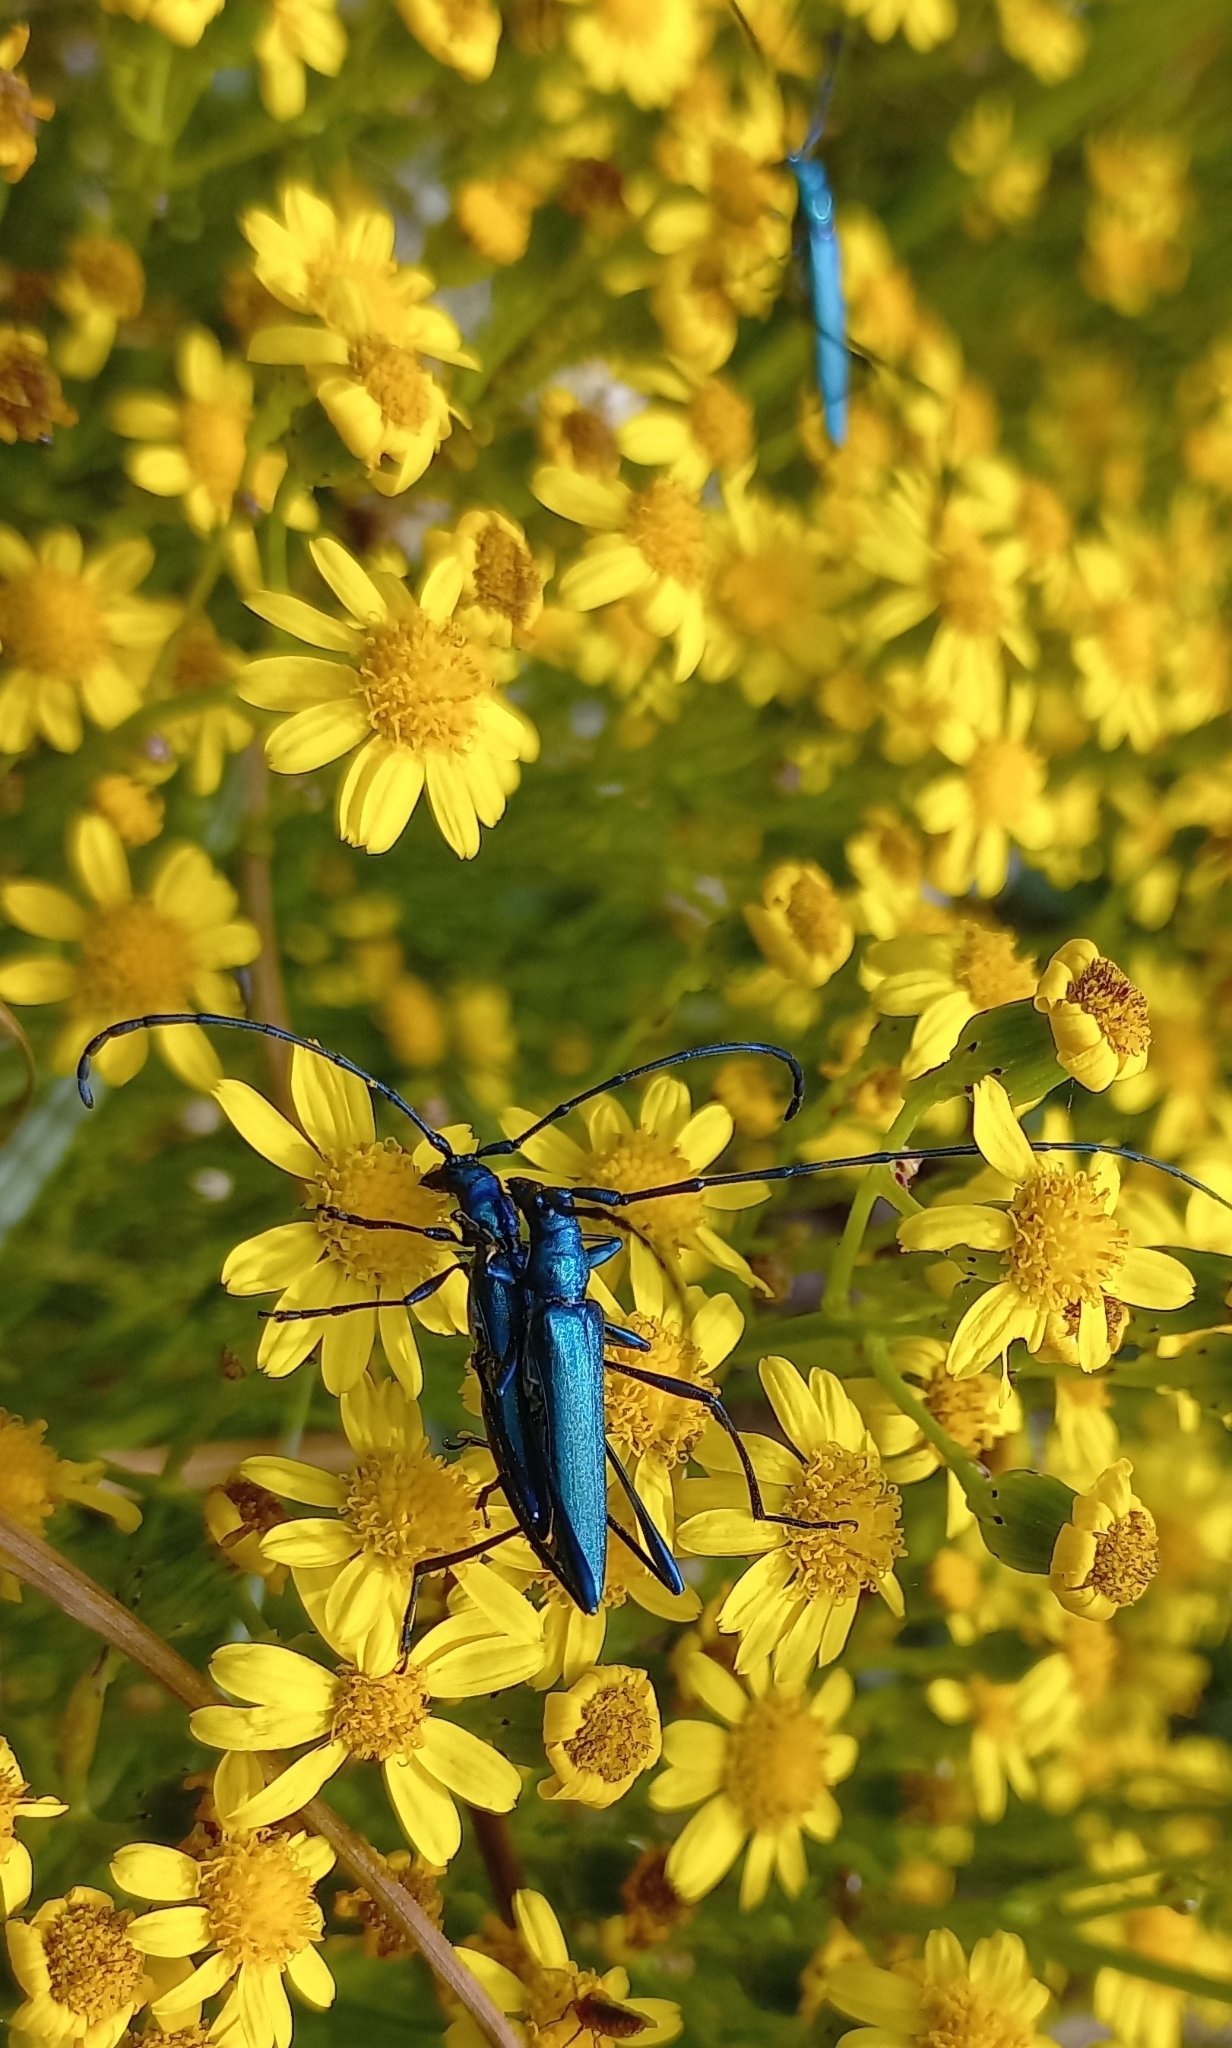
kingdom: Animalia
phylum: Arthropoda
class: Insecta
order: Coleoptera
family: Cerambycidae
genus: Promeces
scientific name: Promeces longipes
